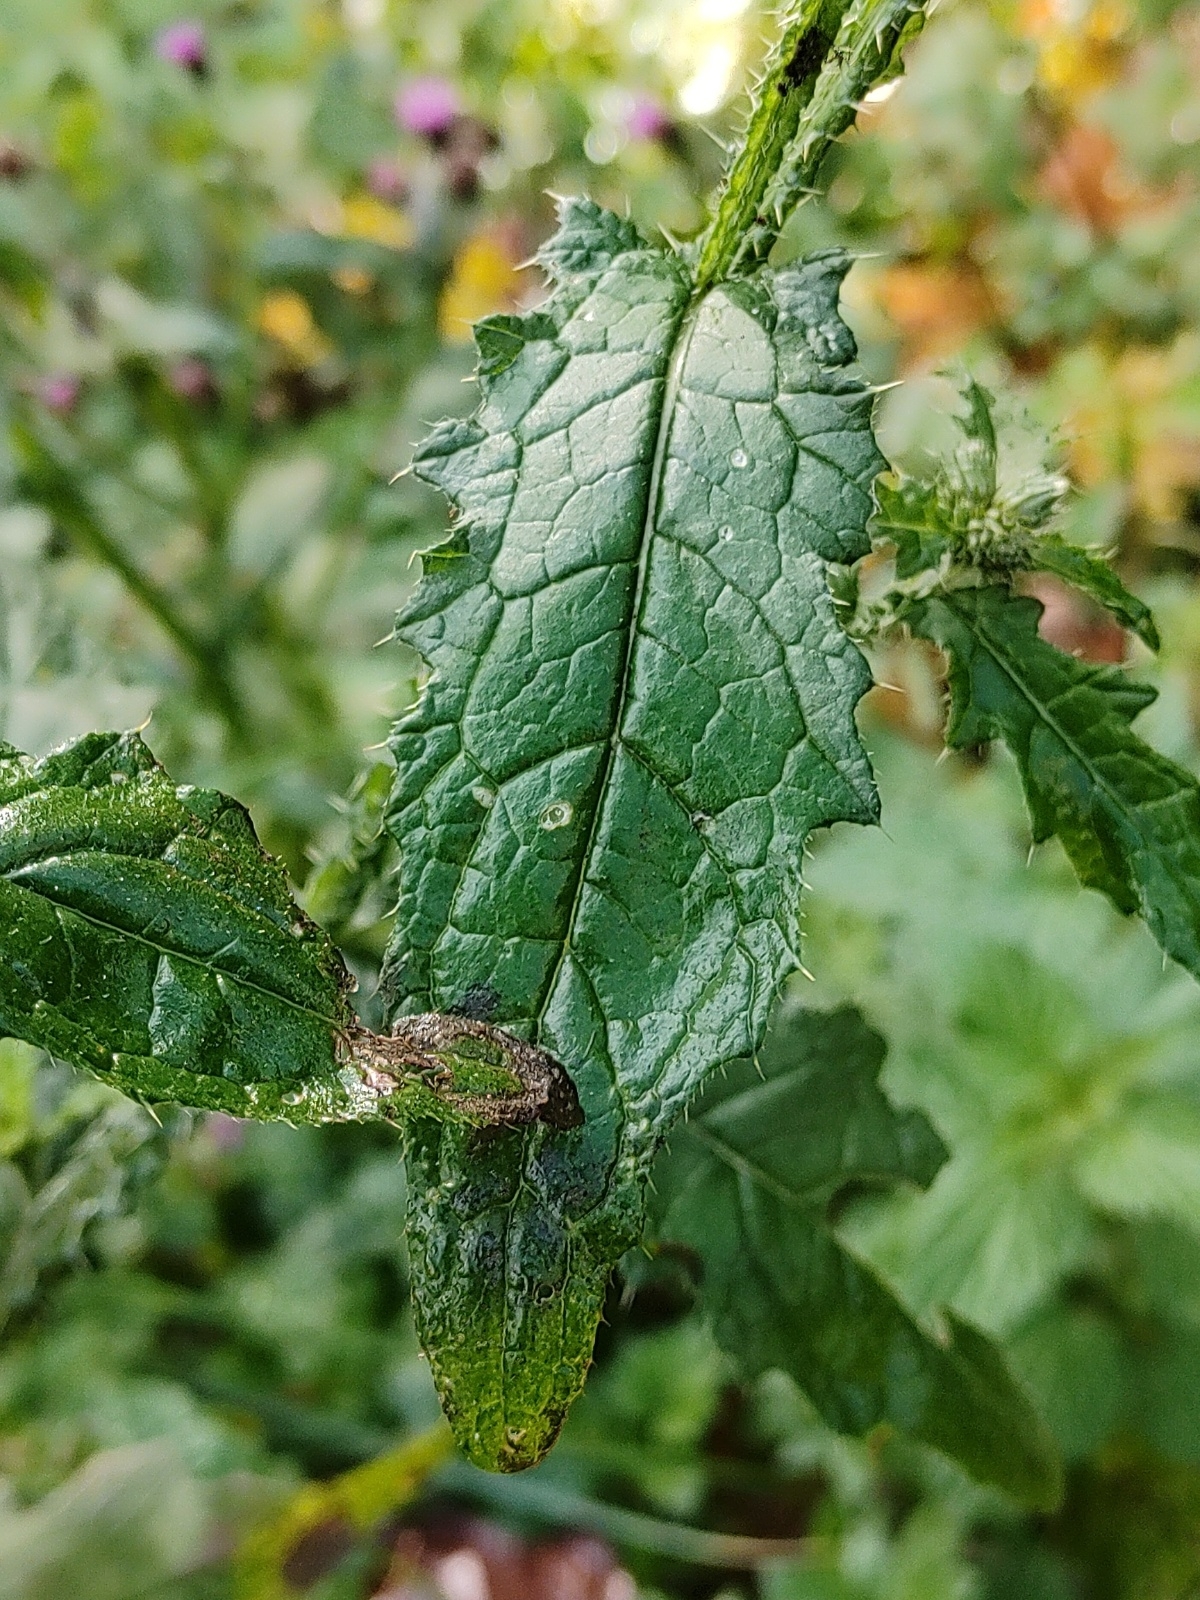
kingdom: Plantae
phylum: Tracheophyta
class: Magnoliopsida
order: Asterales
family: Asteraceae
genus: Carduus
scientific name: Carduus crispus
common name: Welted thistle
